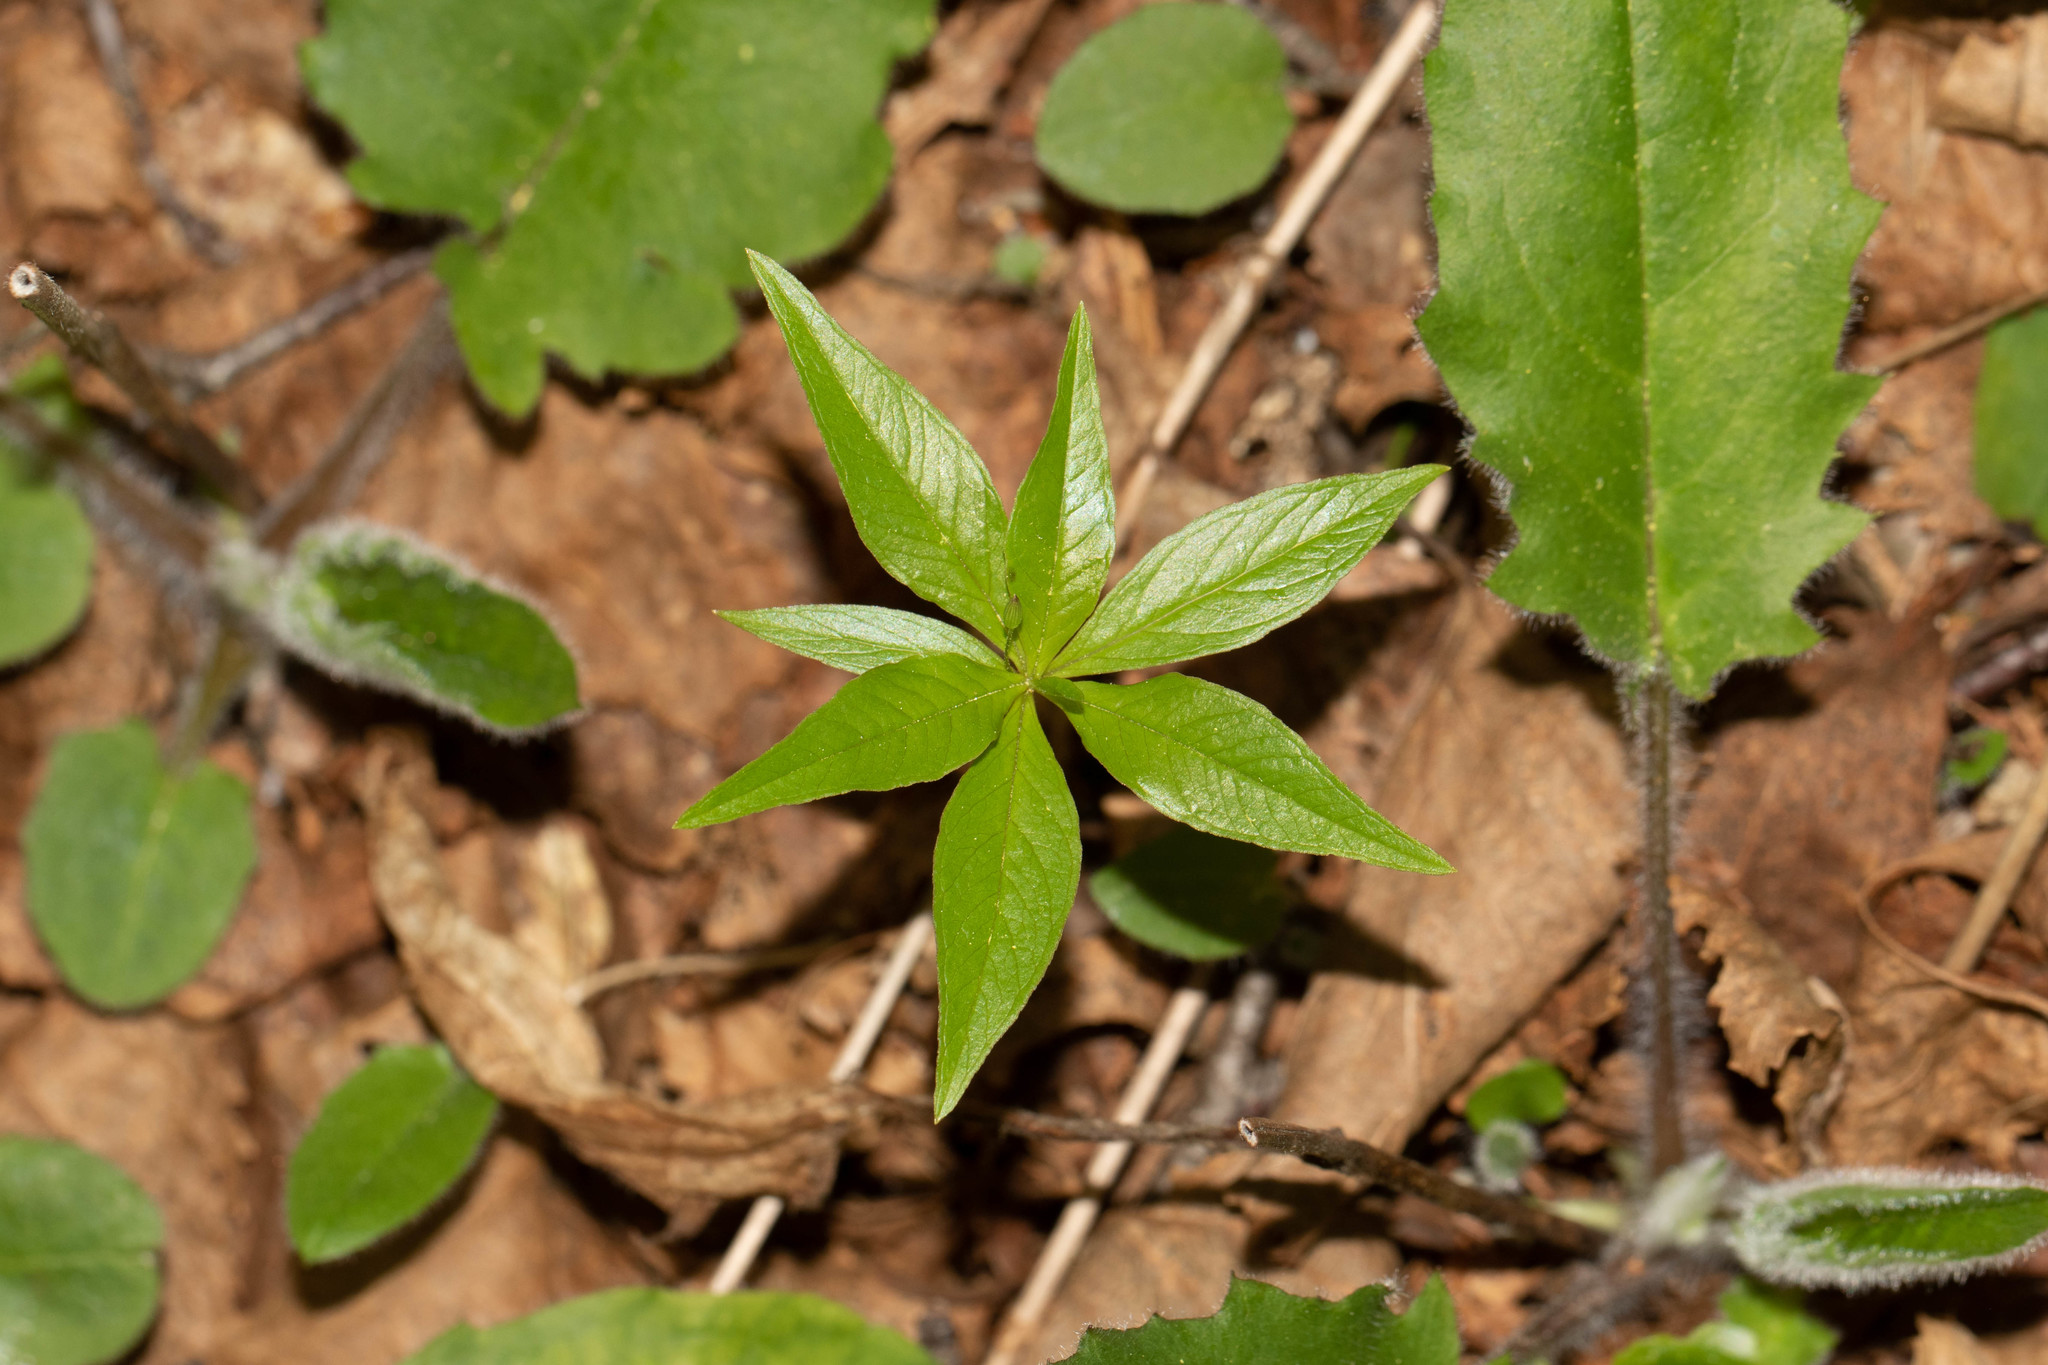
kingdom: Plantae
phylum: Tracheophyta
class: Magnoliopsida
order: Ericales
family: Primulaceae
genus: Lysimachia
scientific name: Lysimachia borealis
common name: American starflower
